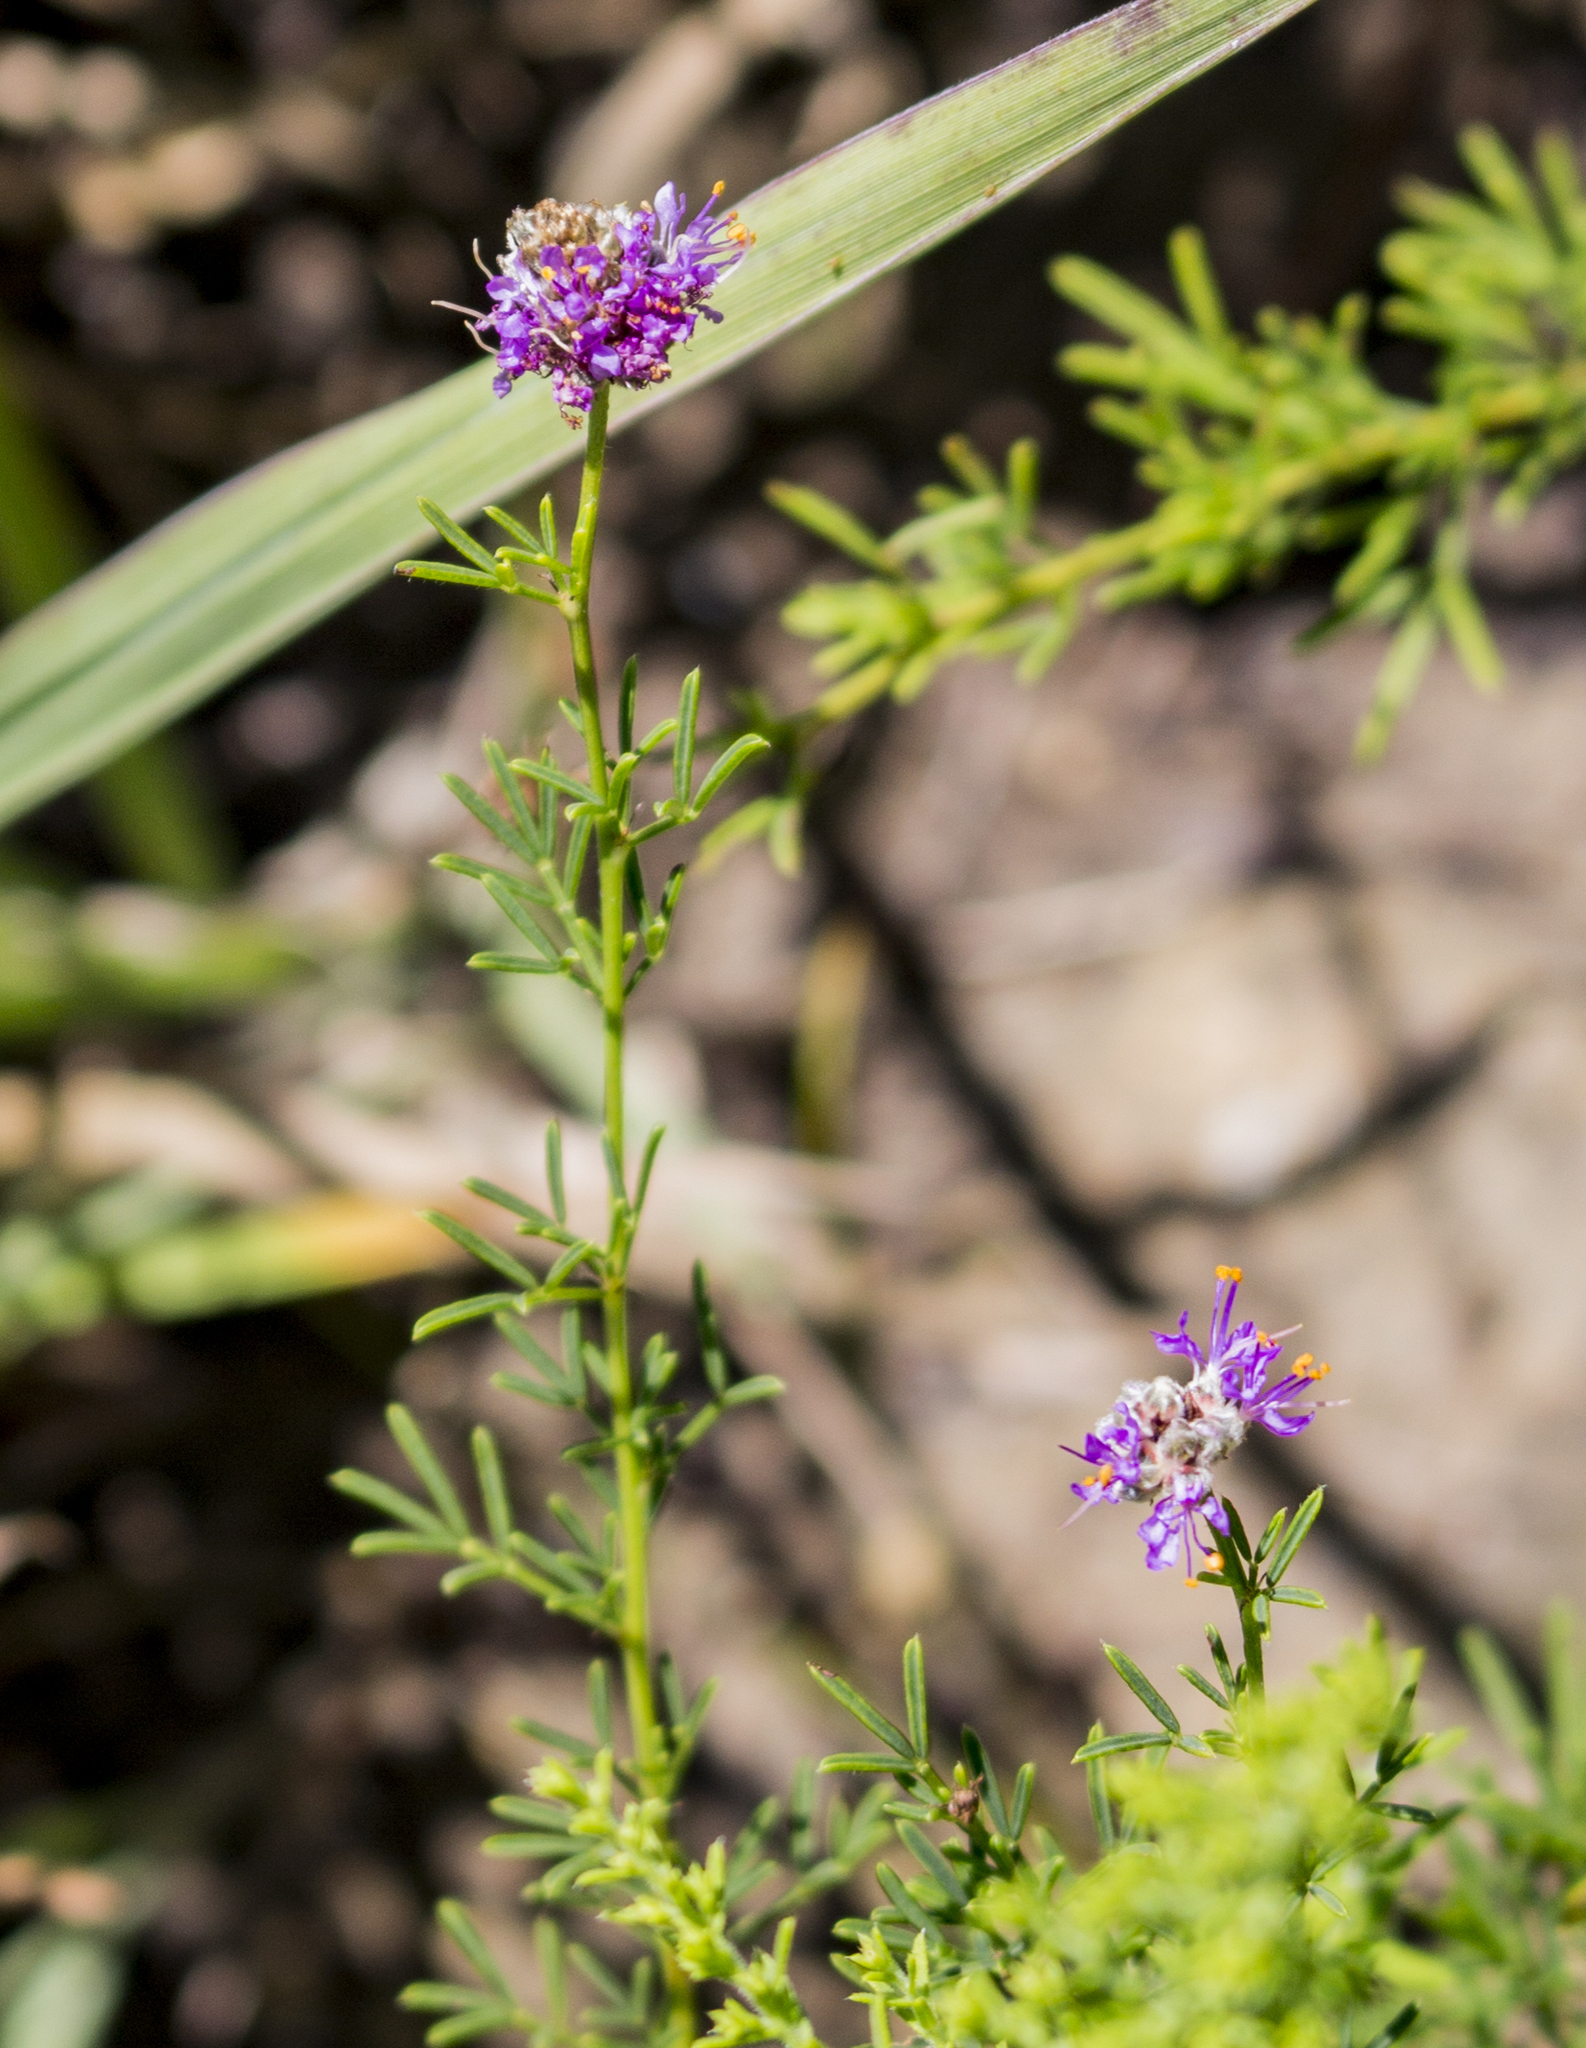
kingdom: Plantae
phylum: Tracheophyta
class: Magnoliopsida
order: Fabales
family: Fabaceae
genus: Dalea
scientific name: Dalea purpurea
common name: Purple prairie-clover
